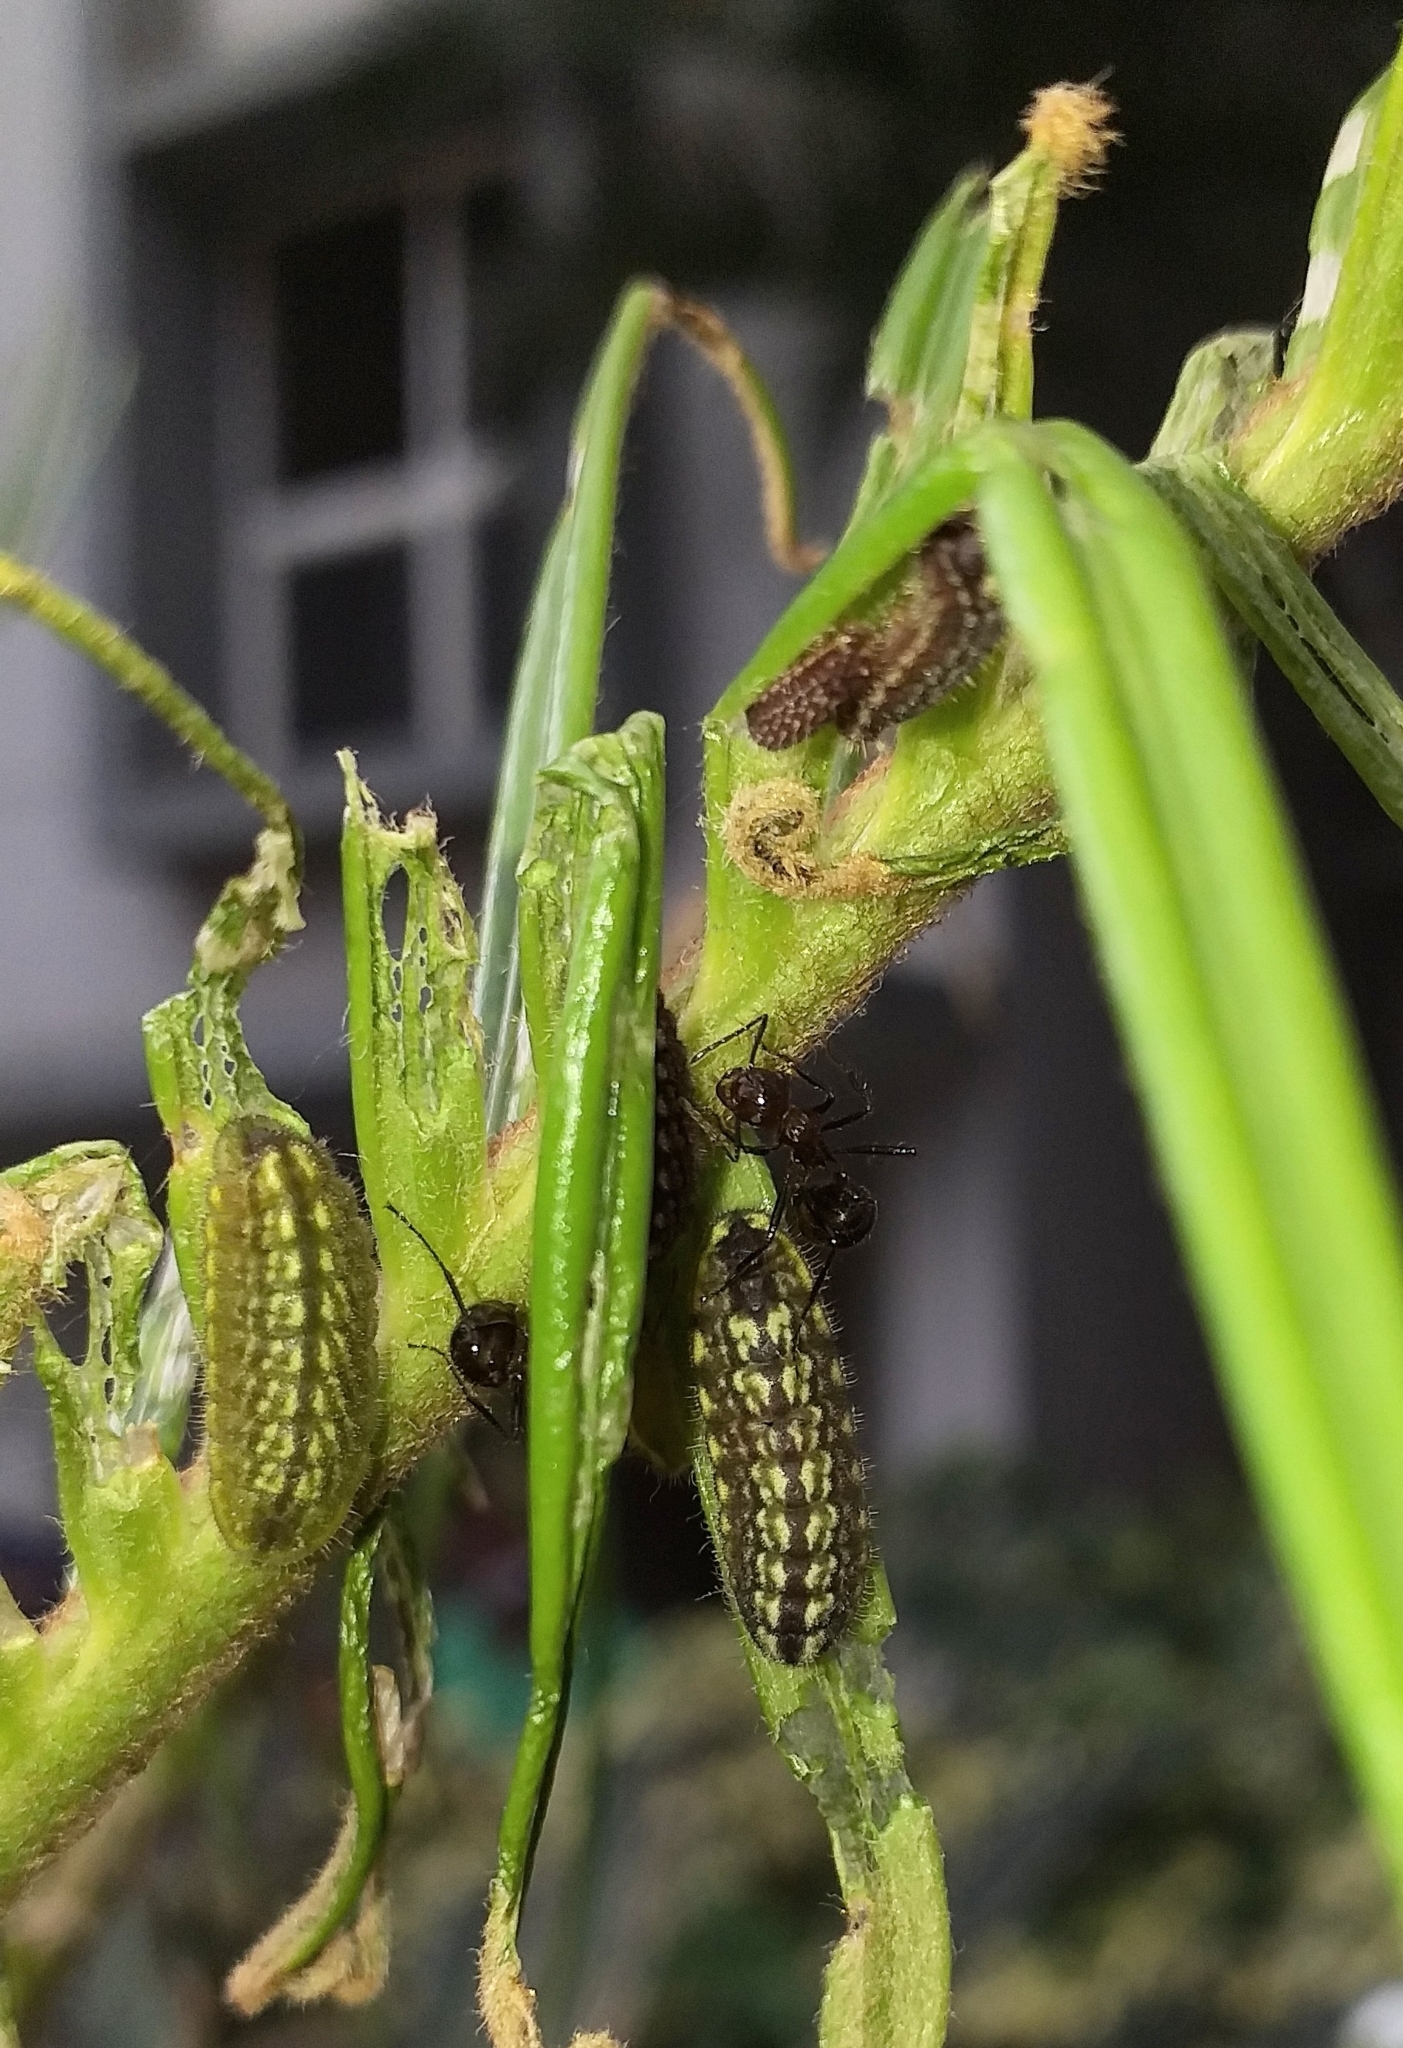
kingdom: Animalia
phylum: Arthropoda
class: Insecta
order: Lepidoptera
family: Lycaenidae
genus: Luthrodes
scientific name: Luthrodes pandava
